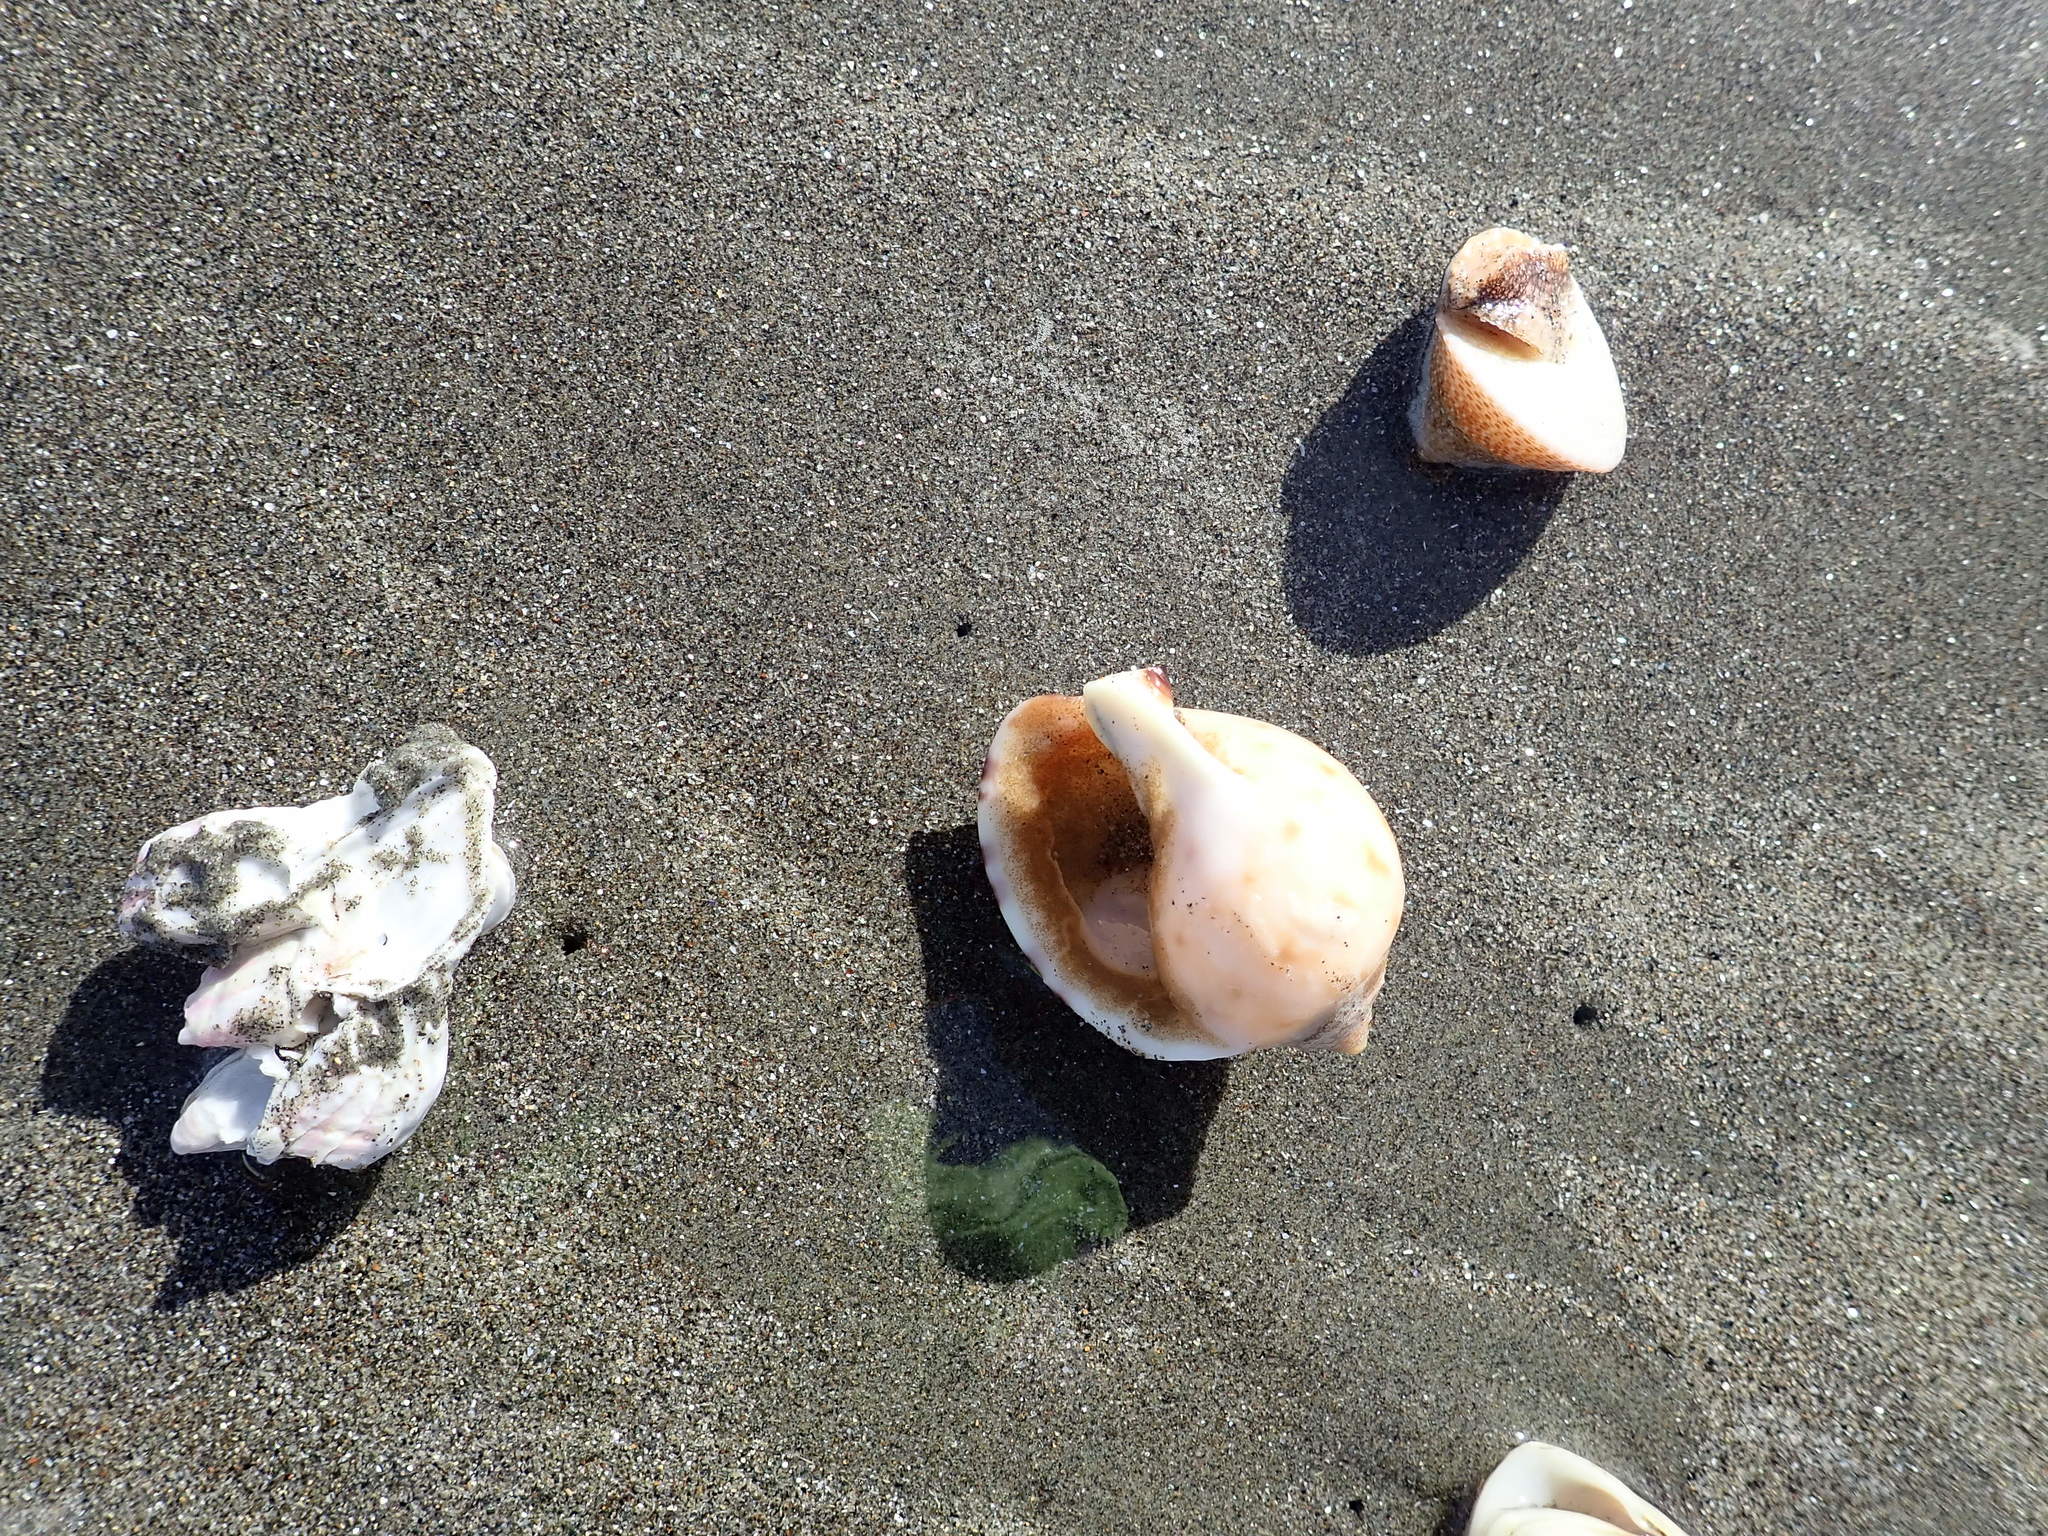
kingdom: Animalia
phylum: Mollusca
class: Gastropoda
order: Littorinimorpha
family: Cassidae
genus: Semicassis
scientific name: Semicassis pyrum
